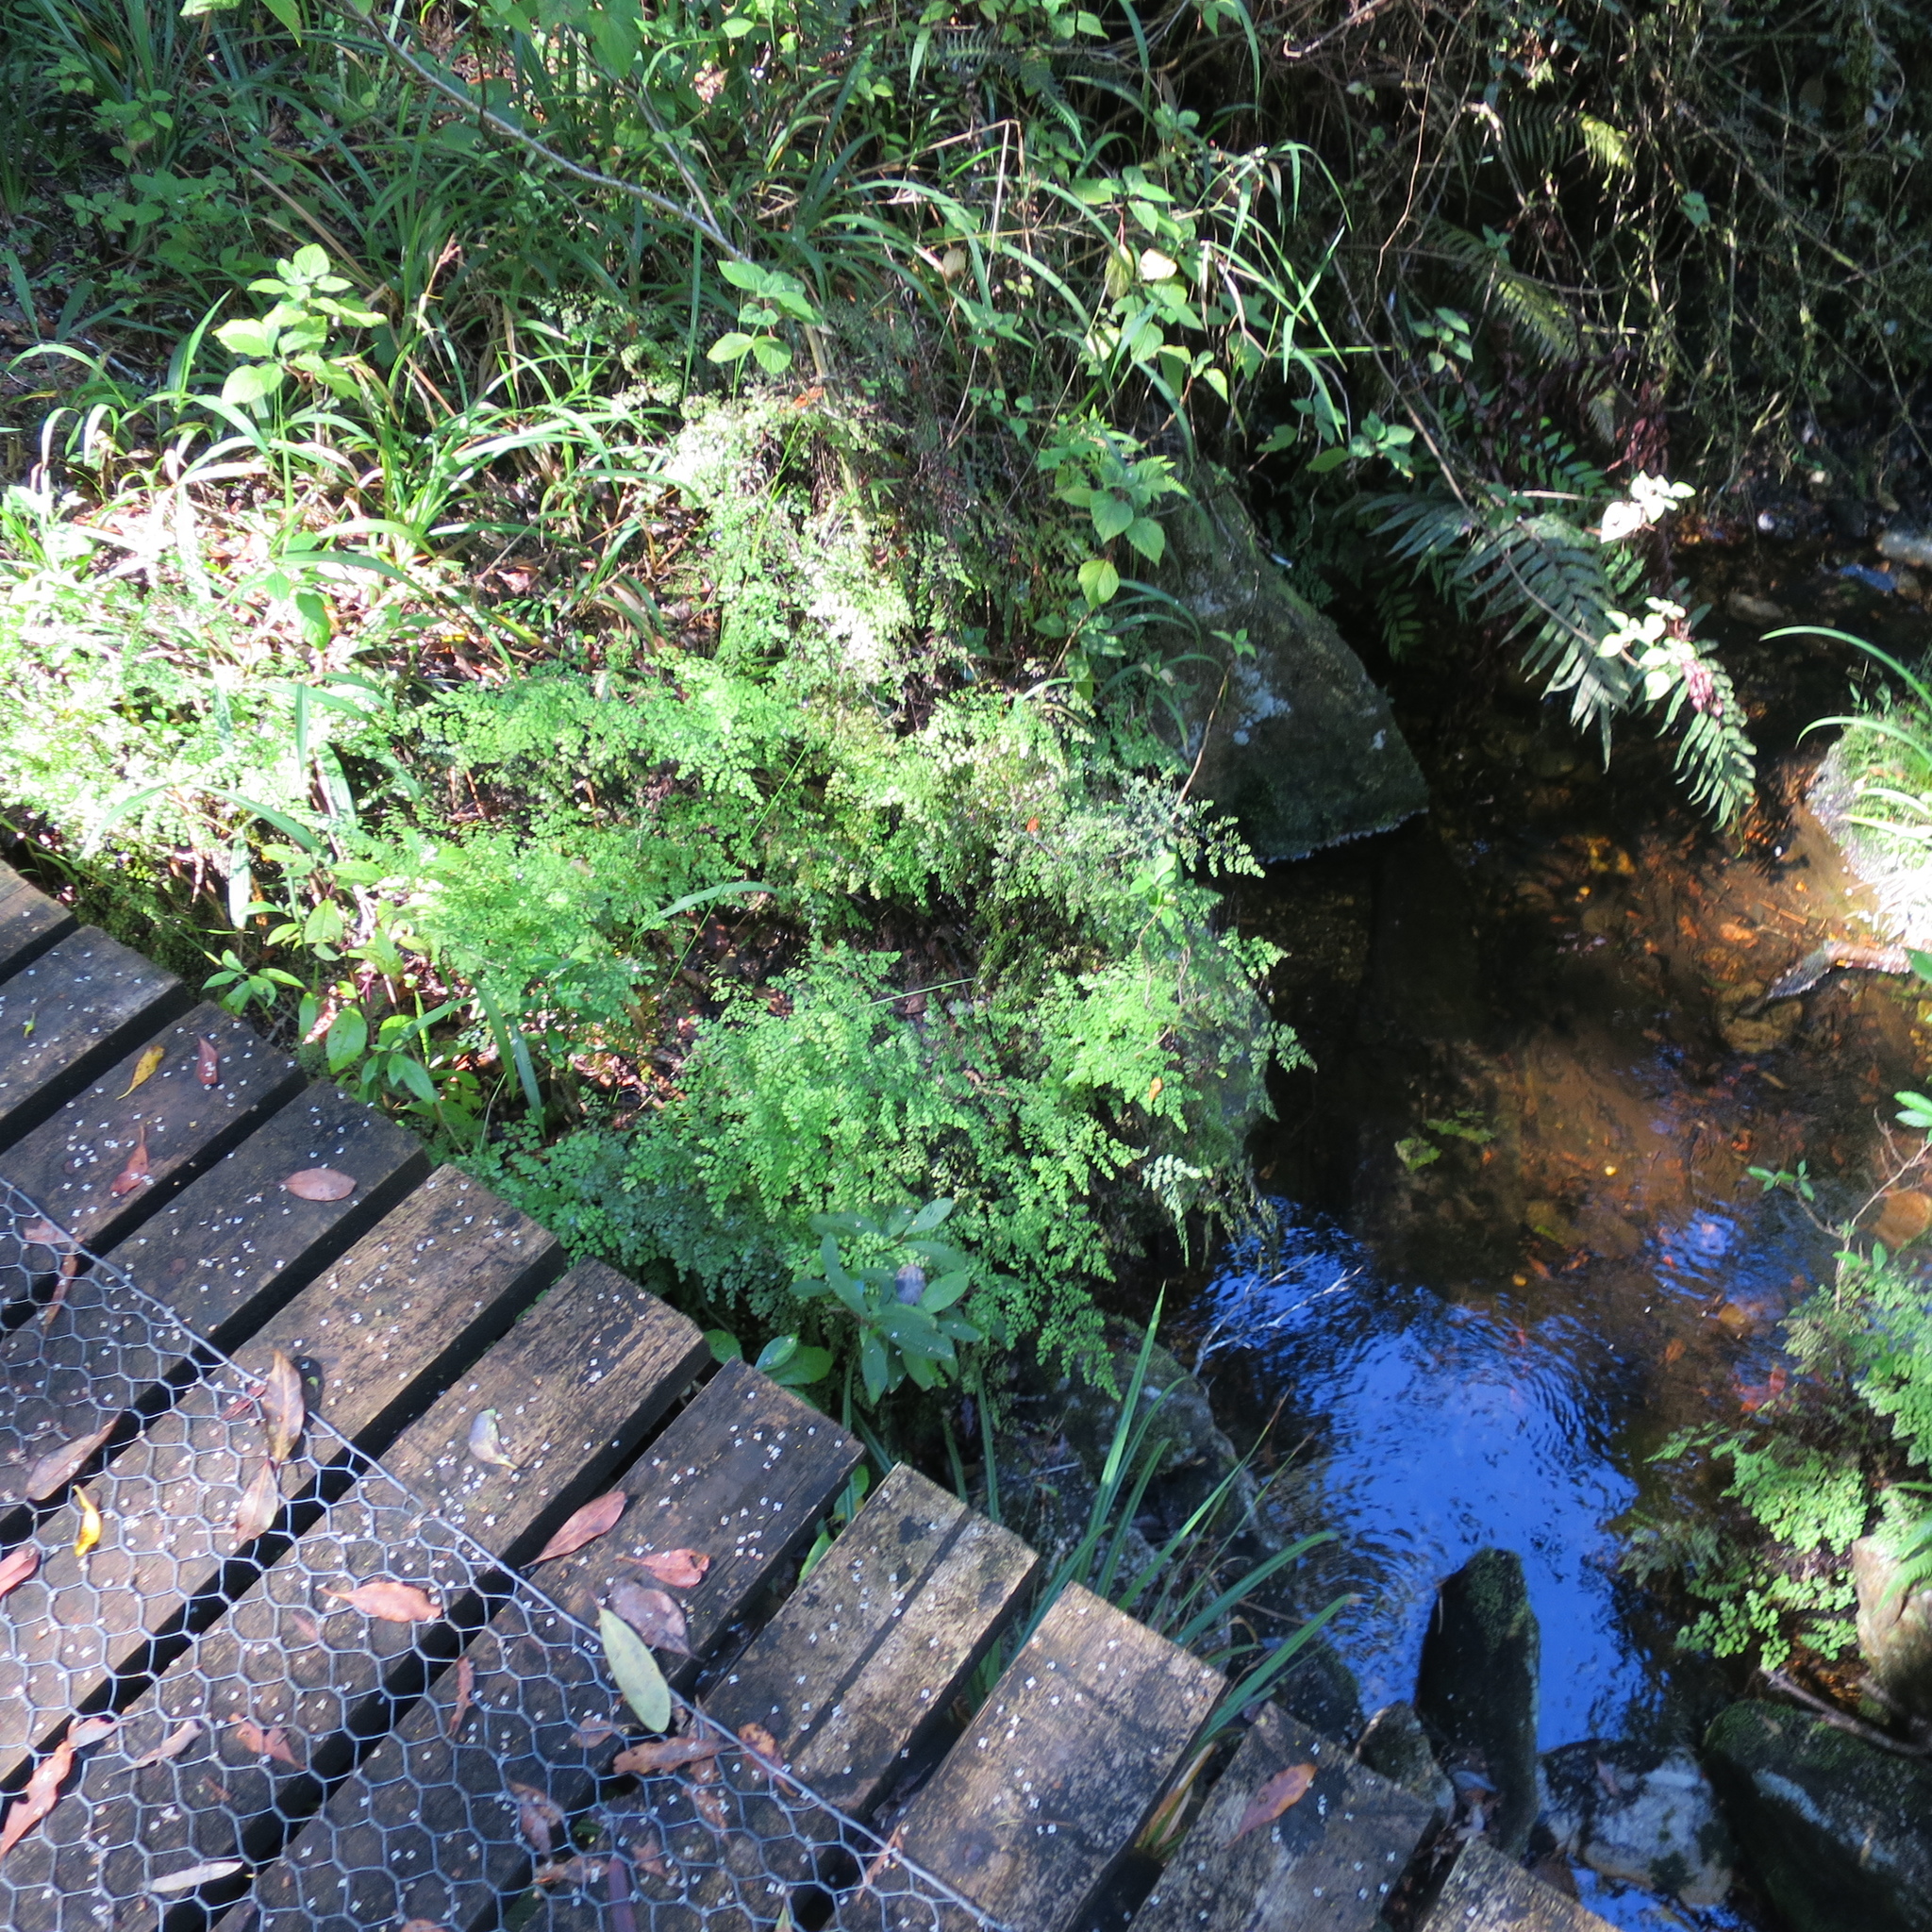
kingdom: Plantae
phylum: Tracheophyta
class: Polypodiopsida
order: Polypodiales
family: Pteridaceae
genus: Adiantum
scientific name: Adiantum aethiopicum
